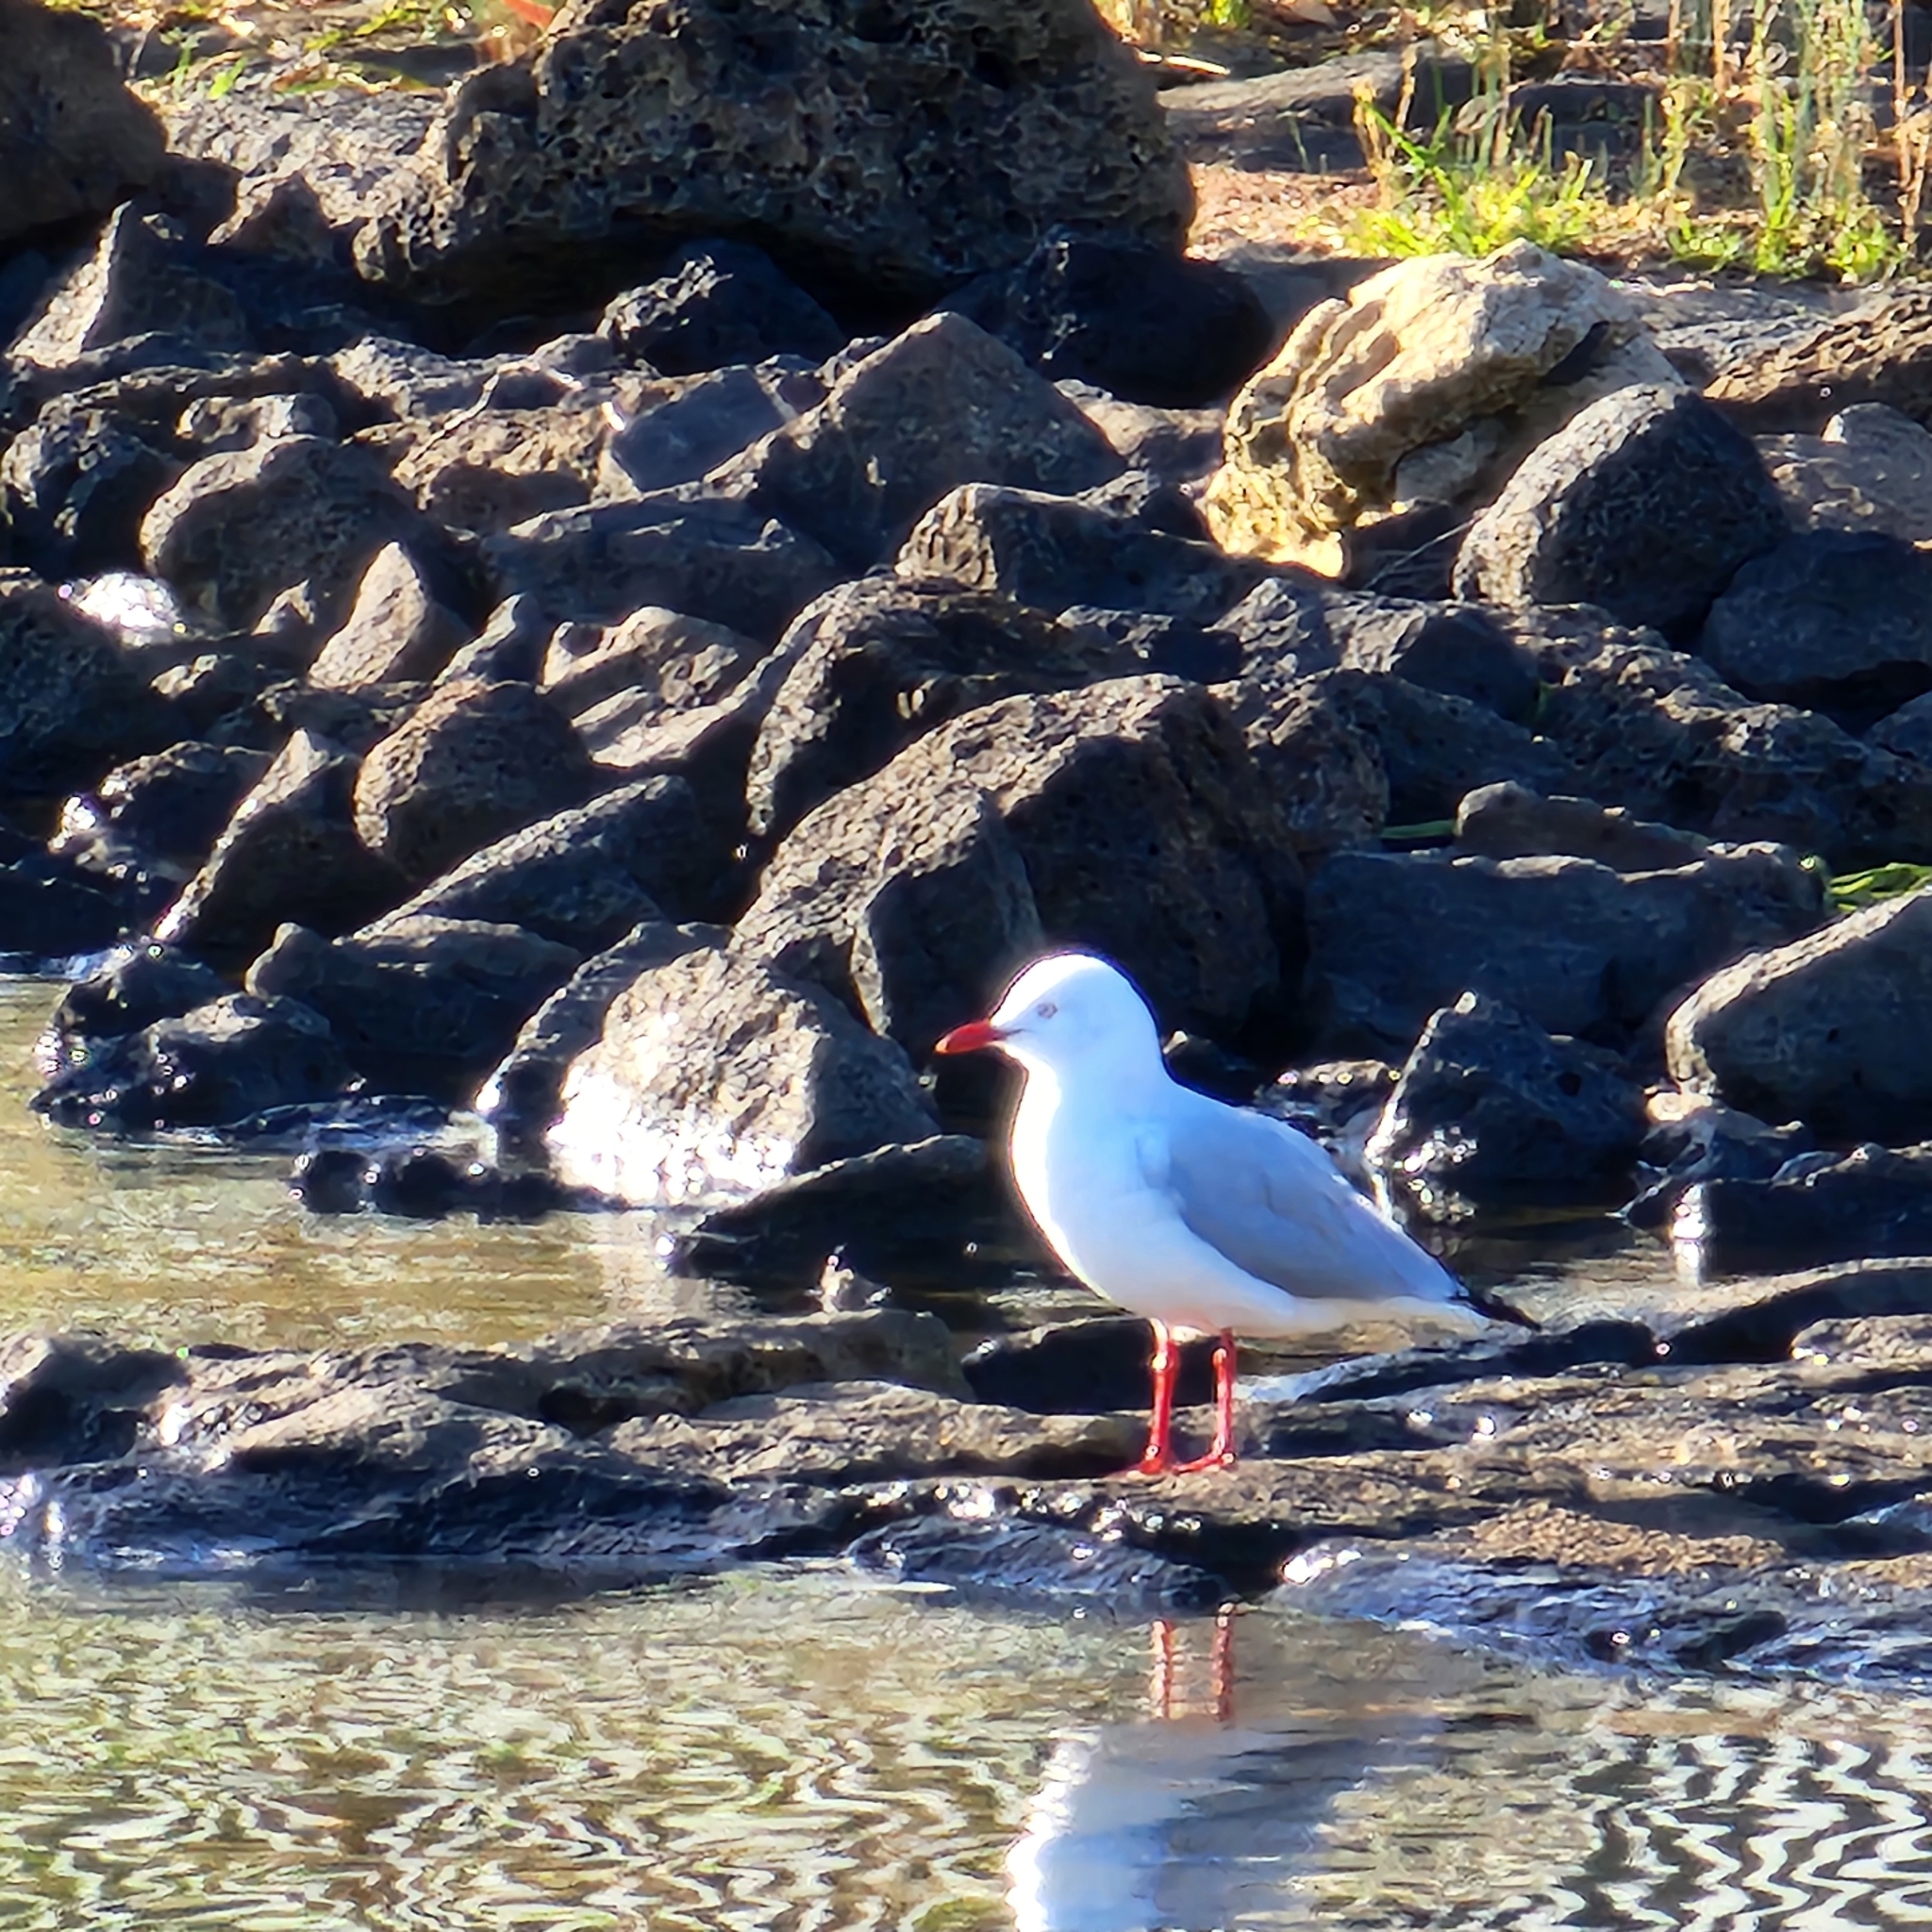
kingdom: Animalia
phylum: Chordata
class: Aves
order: Charadriiformes
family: Laridae
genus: Chroicocephalus
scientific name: Chroicocephalus novaehollandiae
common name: Silver gull
